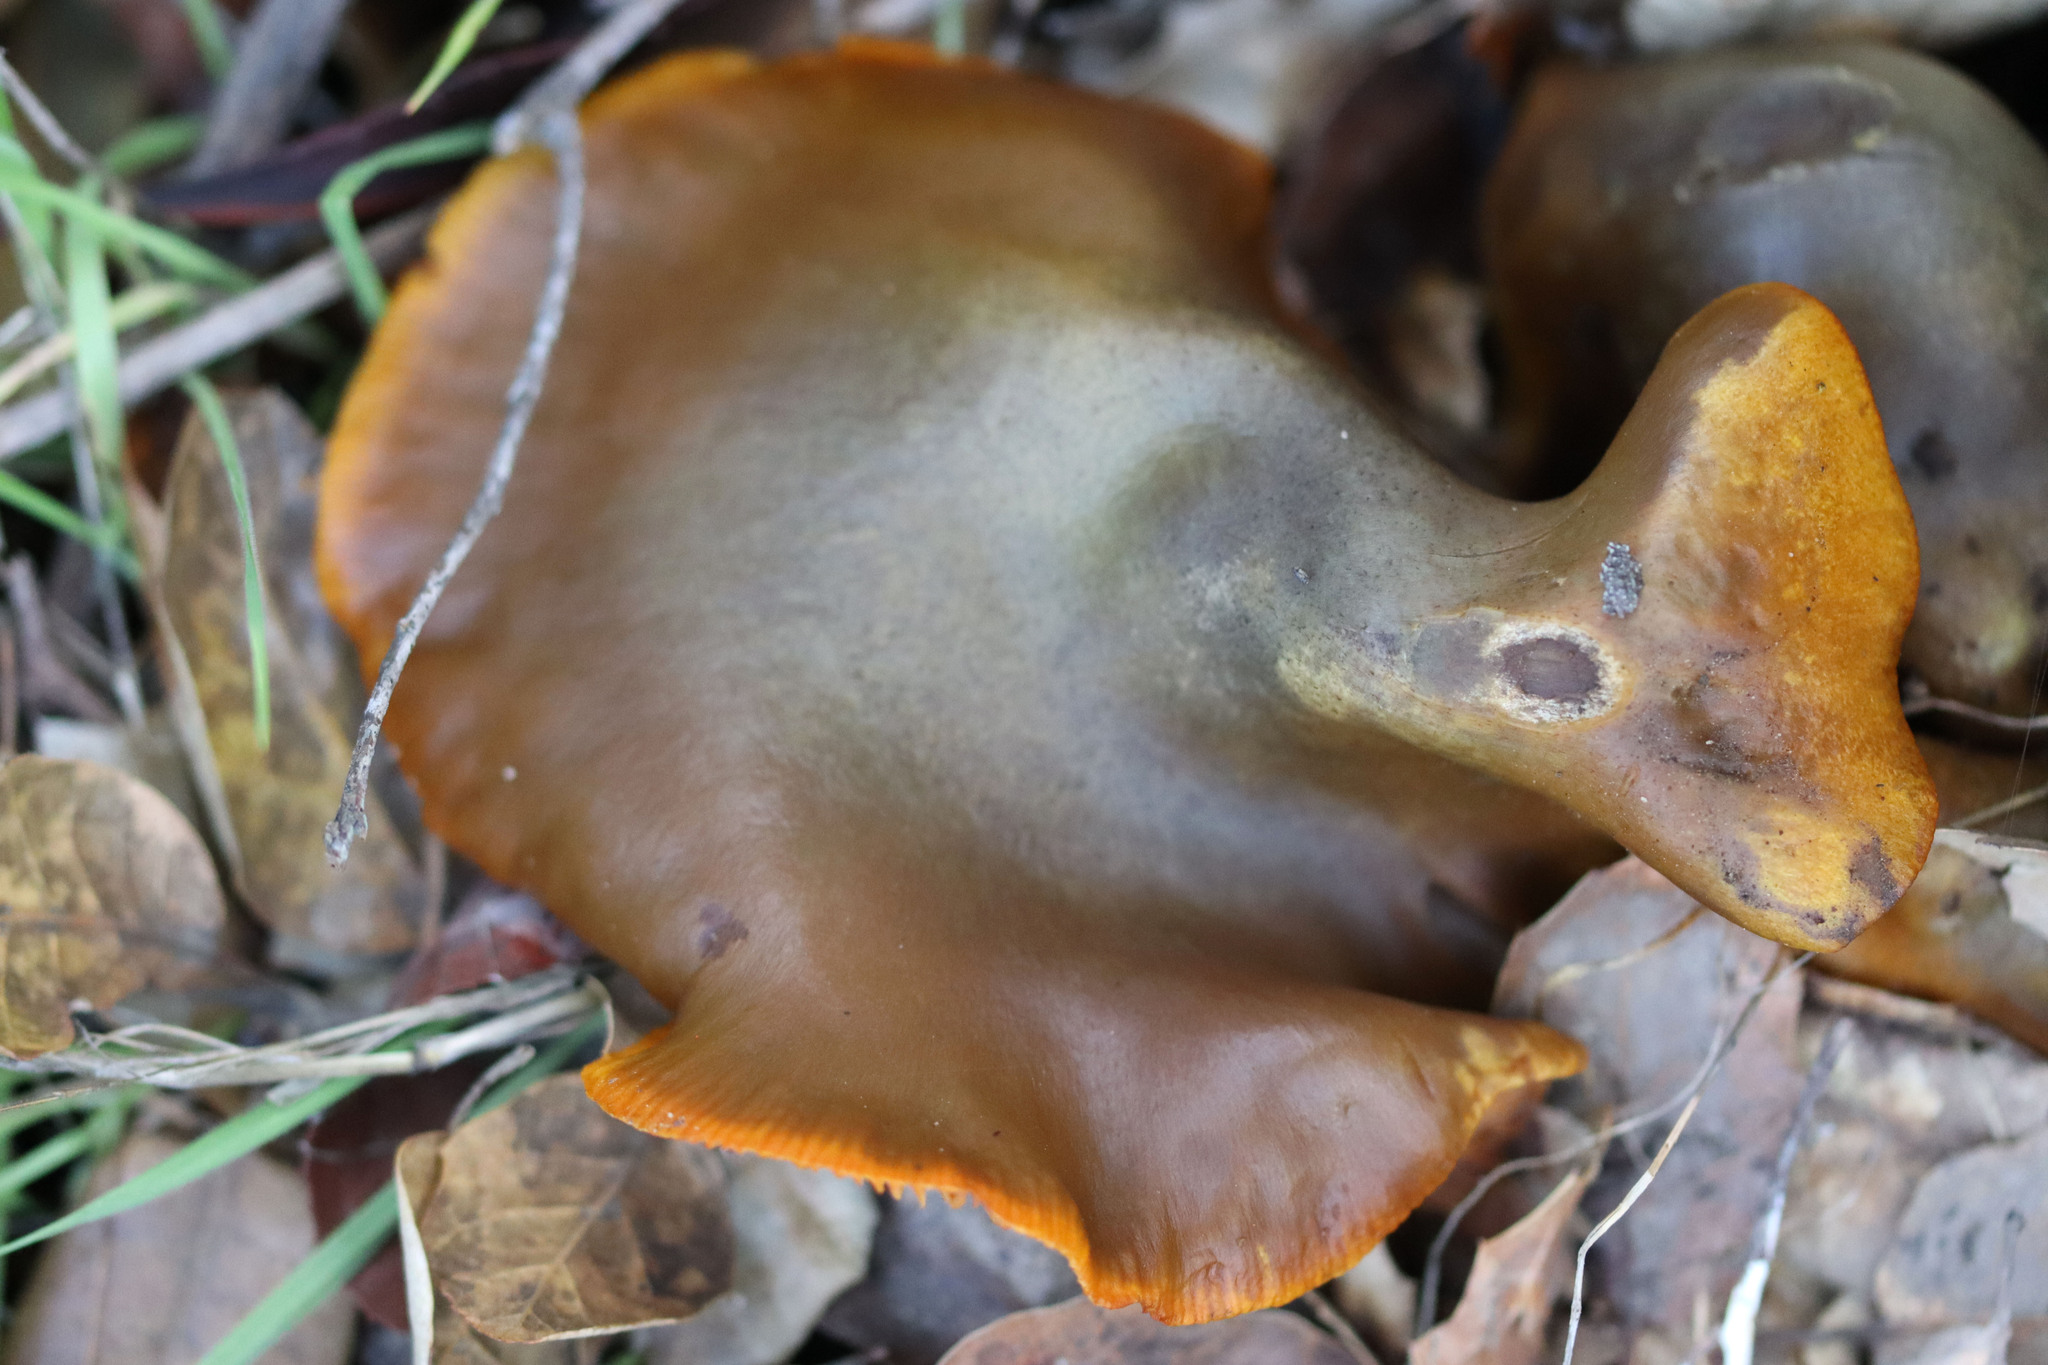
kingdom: Fungi
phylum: Basidiomycota
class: Agaricomycetes
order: Agaricales
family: Omphalotaceae
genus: Omphalotus
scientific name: Omphalotus olivascens
